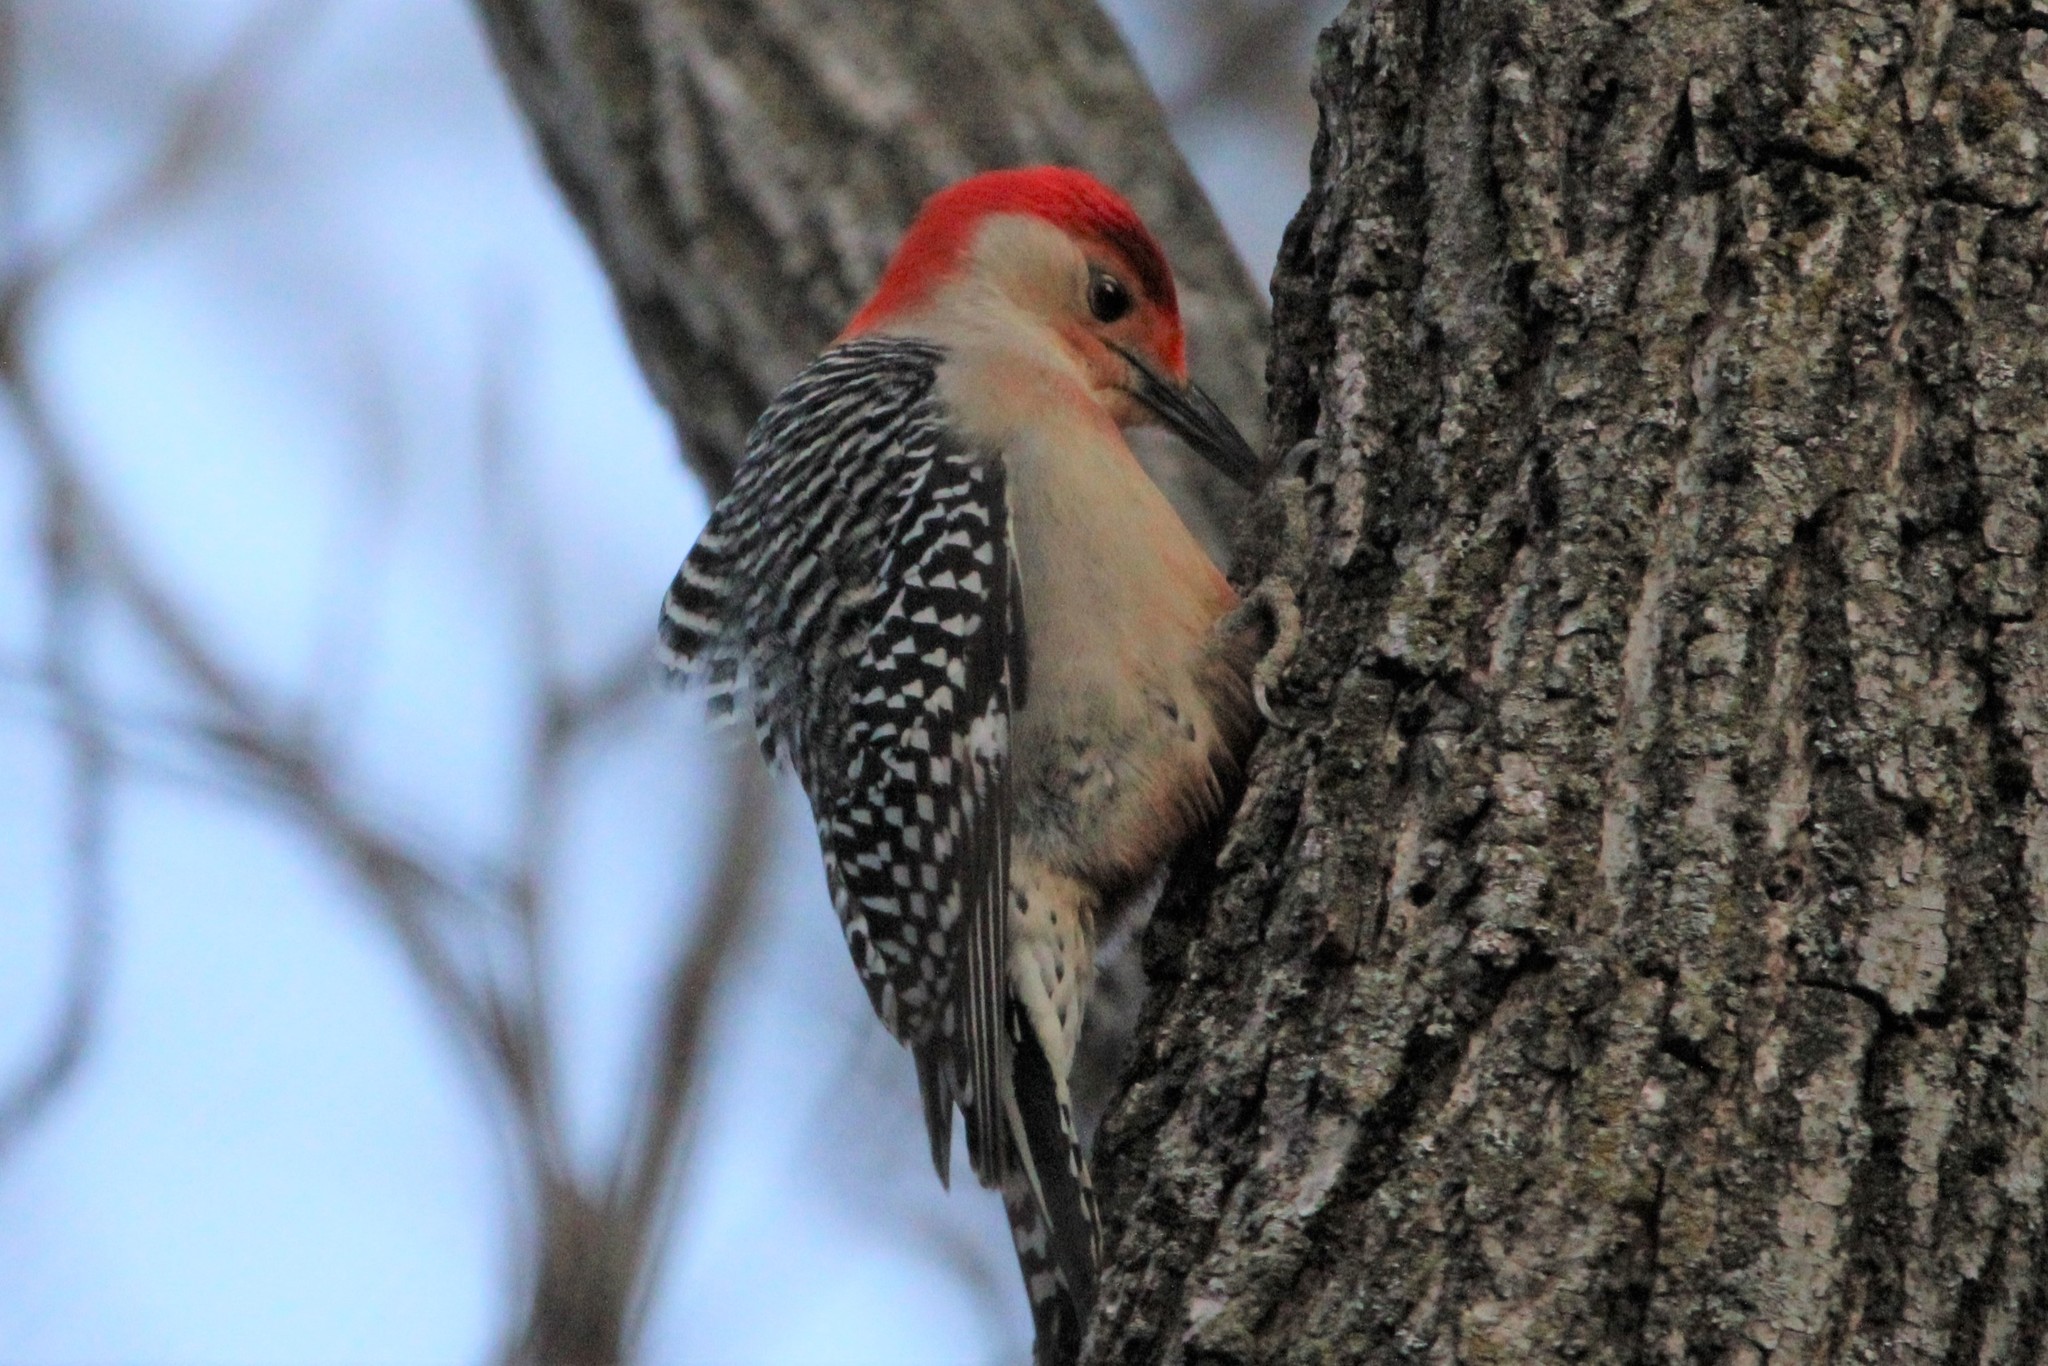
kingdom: Animalia
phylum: Chordata
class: Aves
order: Piciformes
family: Picidae
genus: Melanerpes
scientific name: Melanerpes carolinus
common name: Red-bellied woodpecker
